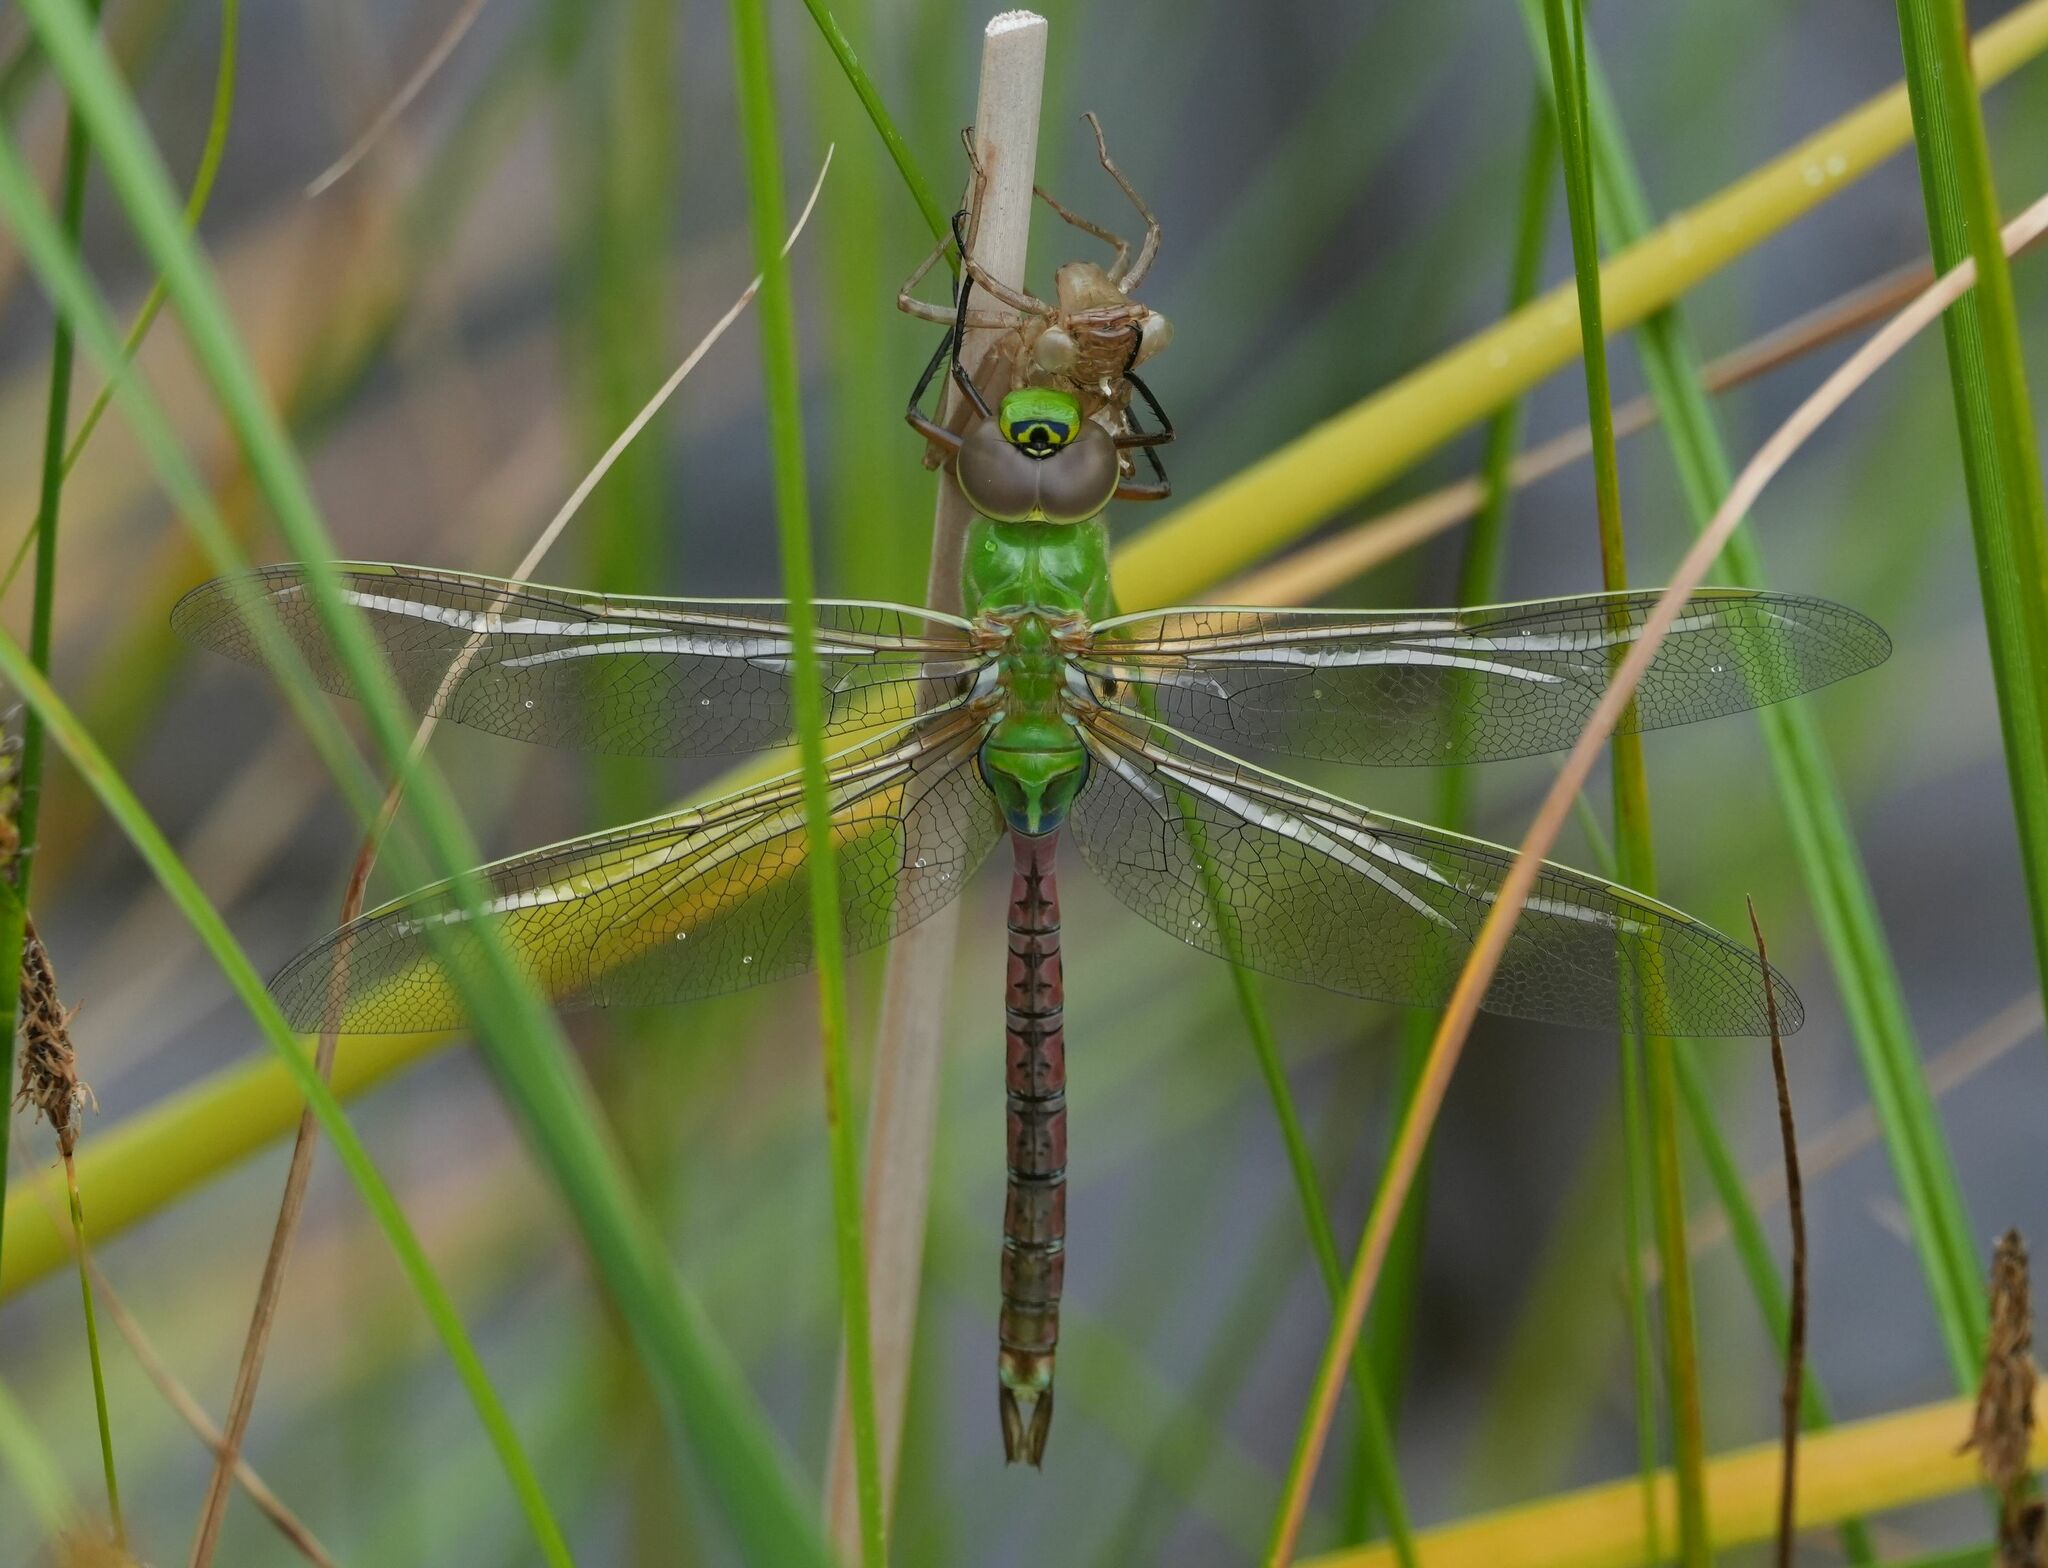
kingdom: Animalia
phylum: Arthropoda
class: Insecta
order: Odonata
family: Aeshnidae
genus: Anax
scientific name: Anax junius
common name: Common green darner
